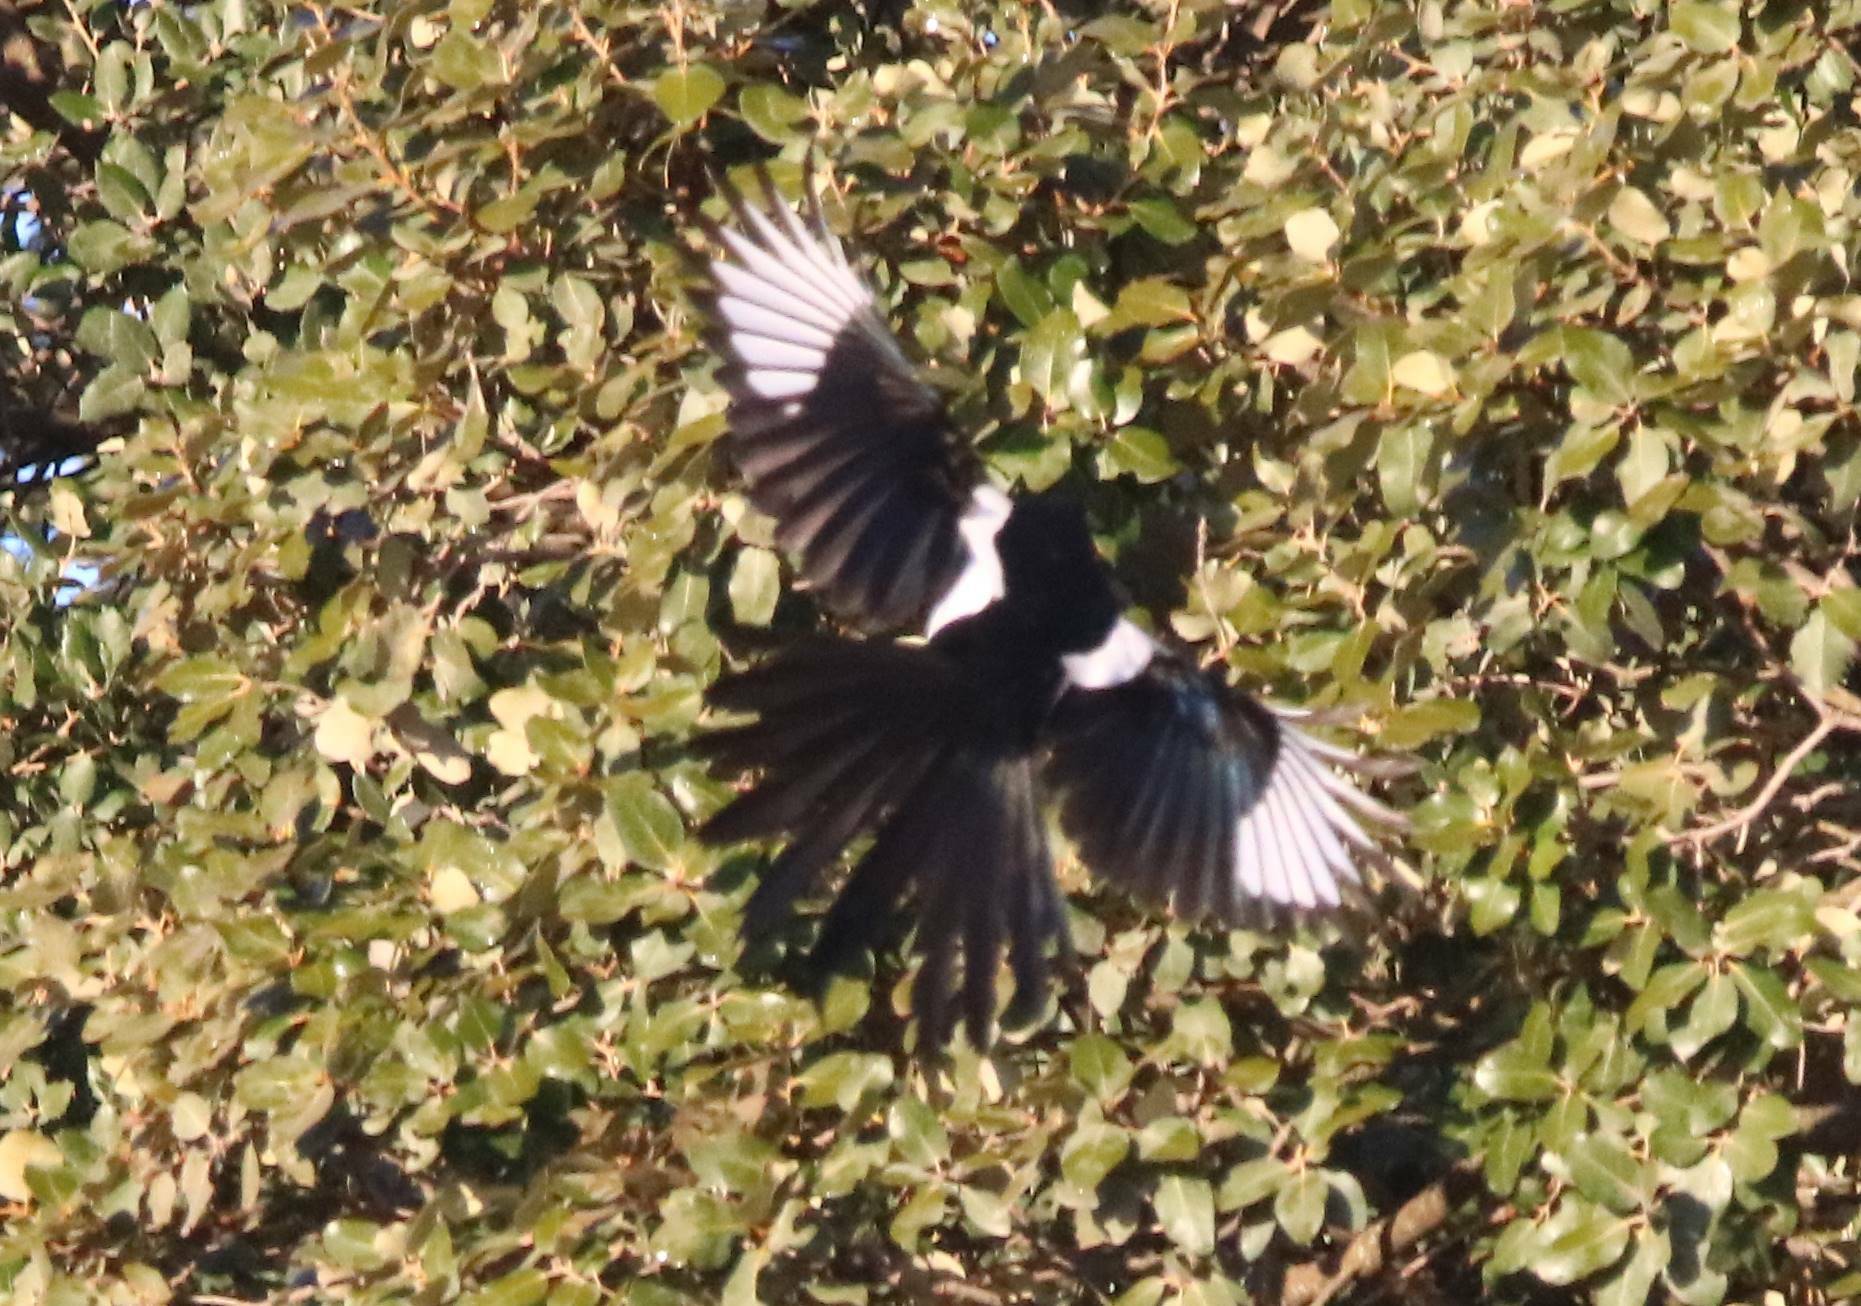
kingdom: Animalia
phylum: Chordata
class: Aves
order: Passeriformes
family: Corvidae
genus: Pica
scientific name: Pica mauritanica
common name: Maghreb magpie
